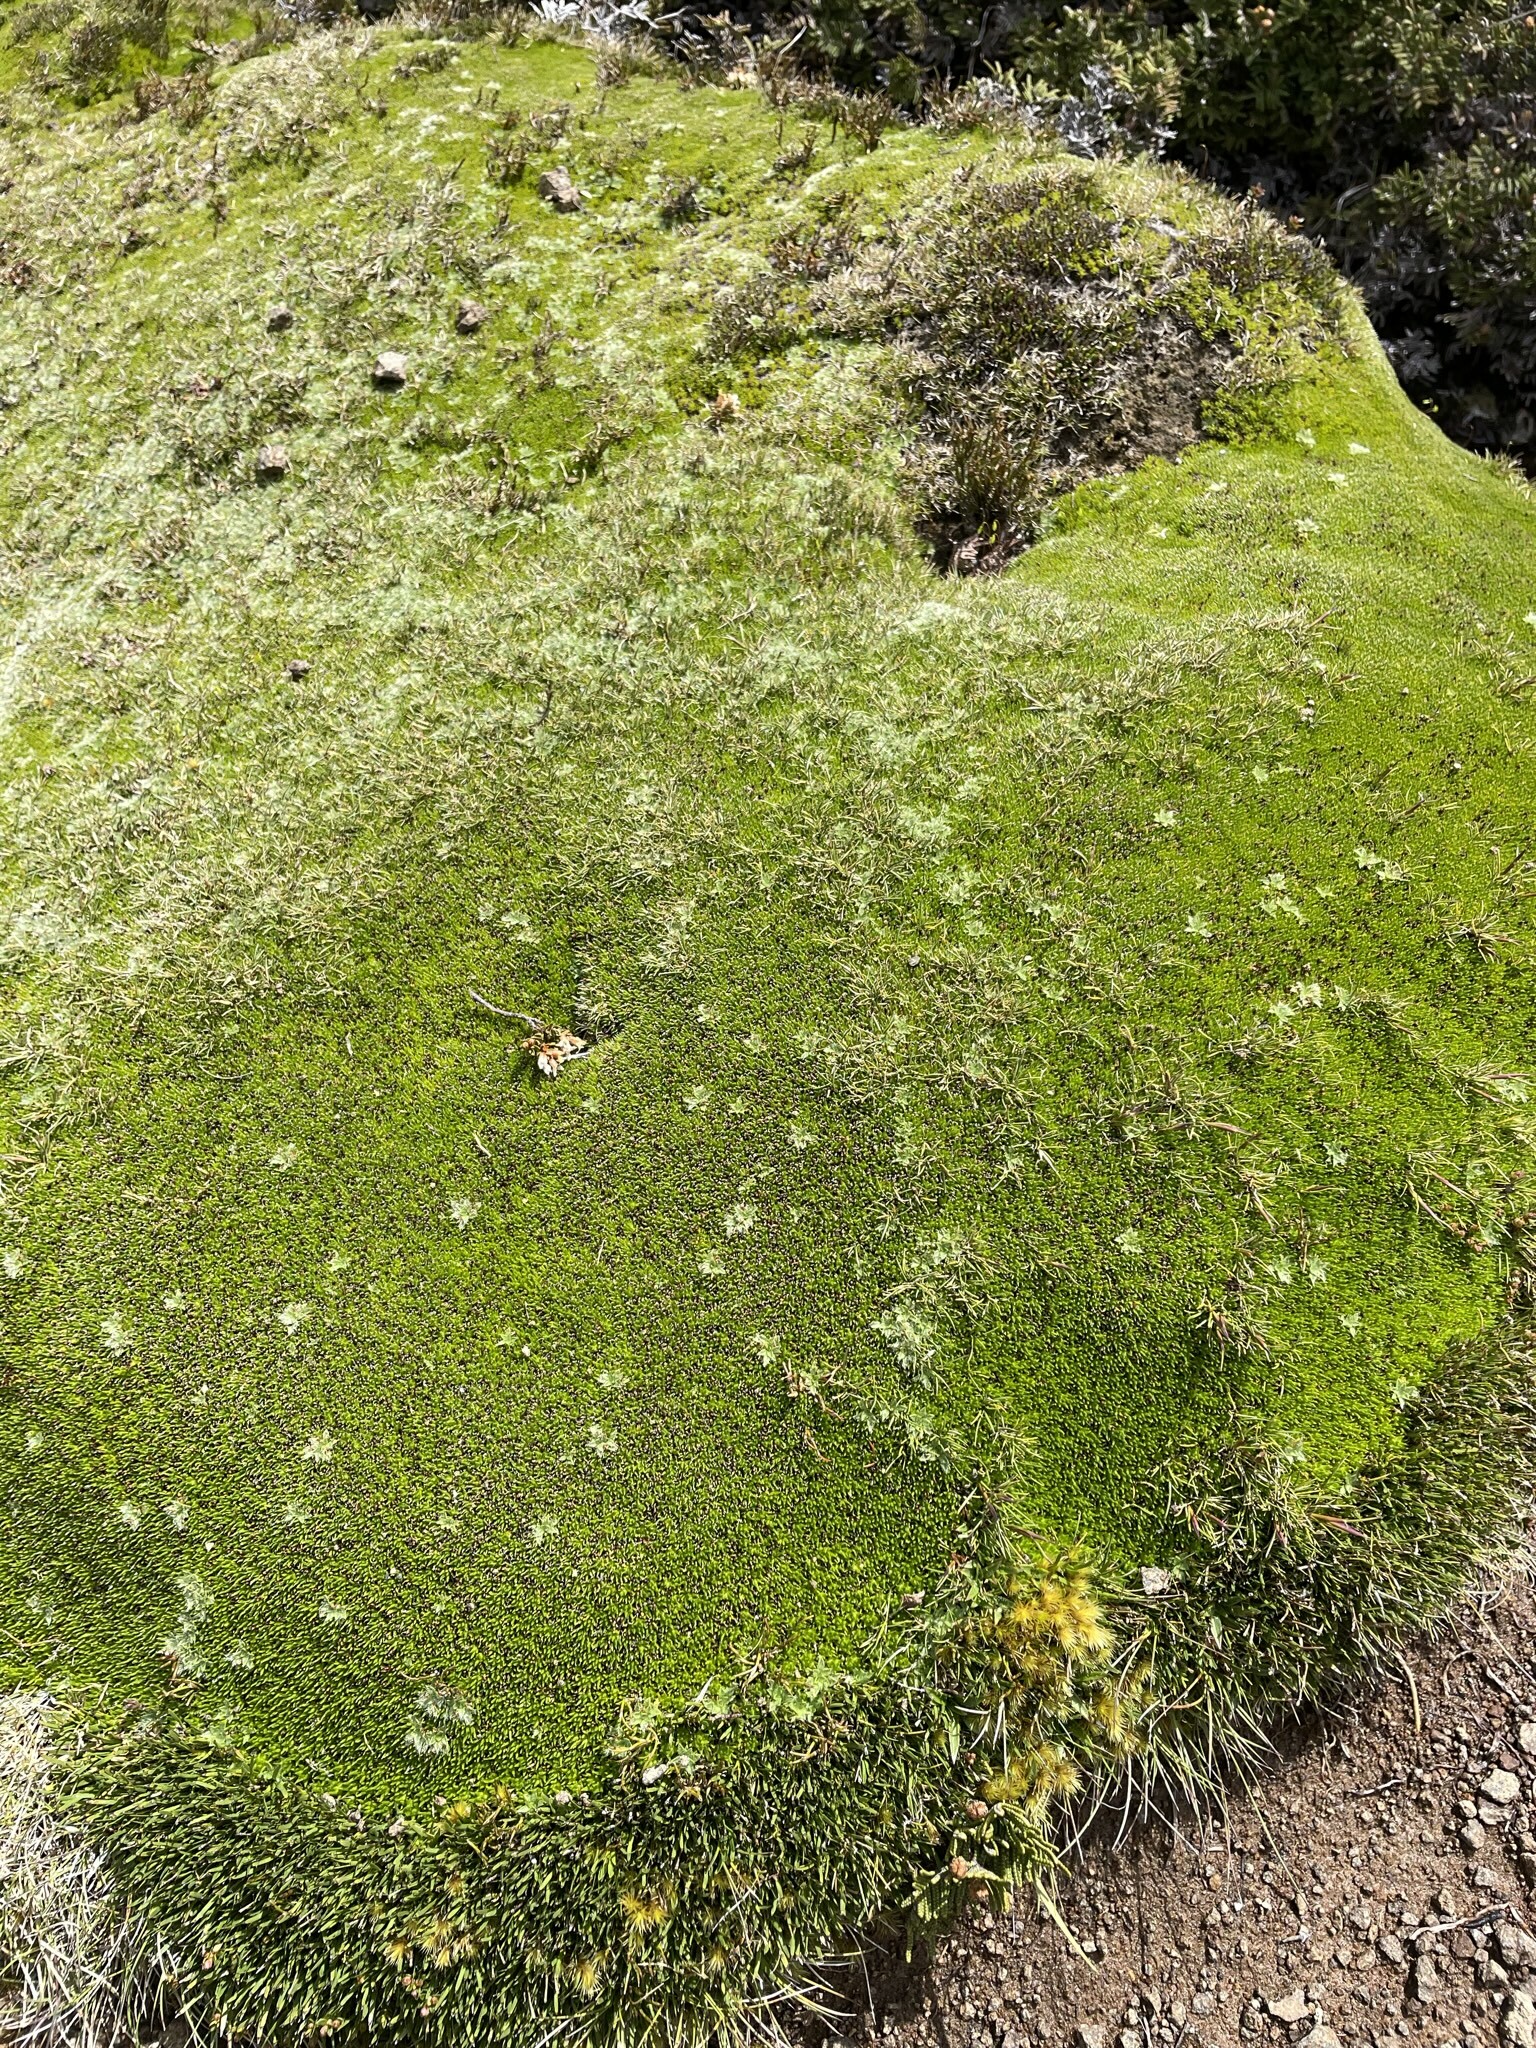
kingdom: Plantae
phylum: Tracheophyta
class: Magnoliopsida
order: Asterales
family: Asteraceae
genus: Abrotanella
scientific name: Abrotanella forsteroides
